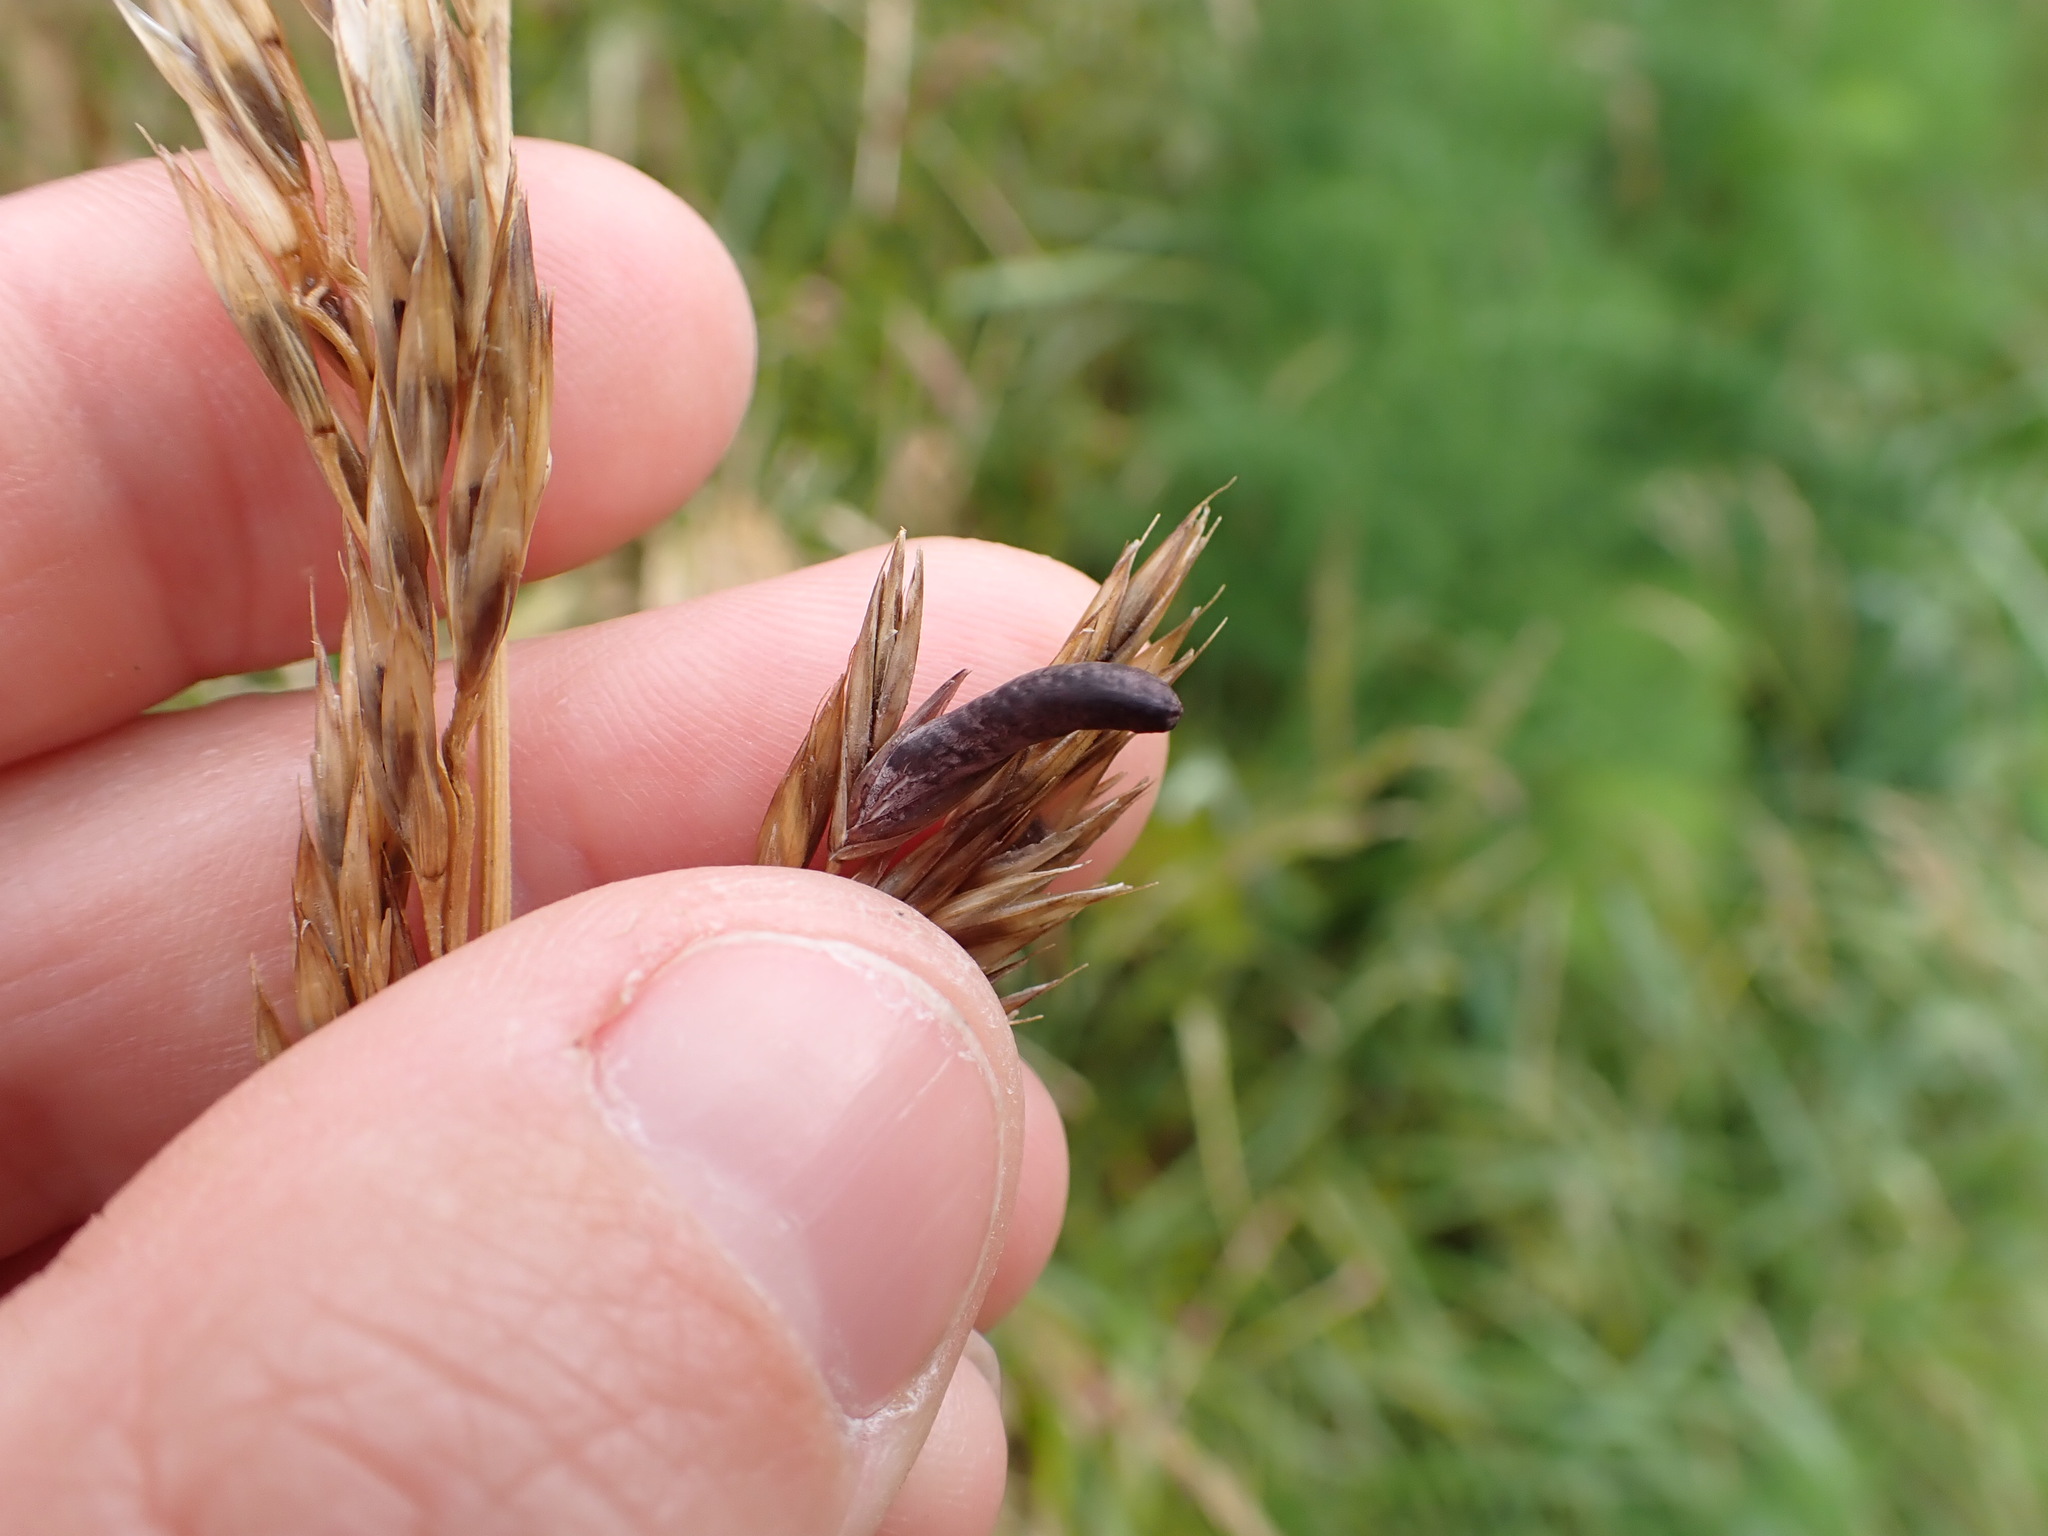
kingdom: Fungi
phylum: Ascomycota
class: Sordariomycetes
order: Hypocreales
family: Clavicipitaceae
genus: Claviceps
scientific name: Claviceps purpurea
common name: Rye ergot
